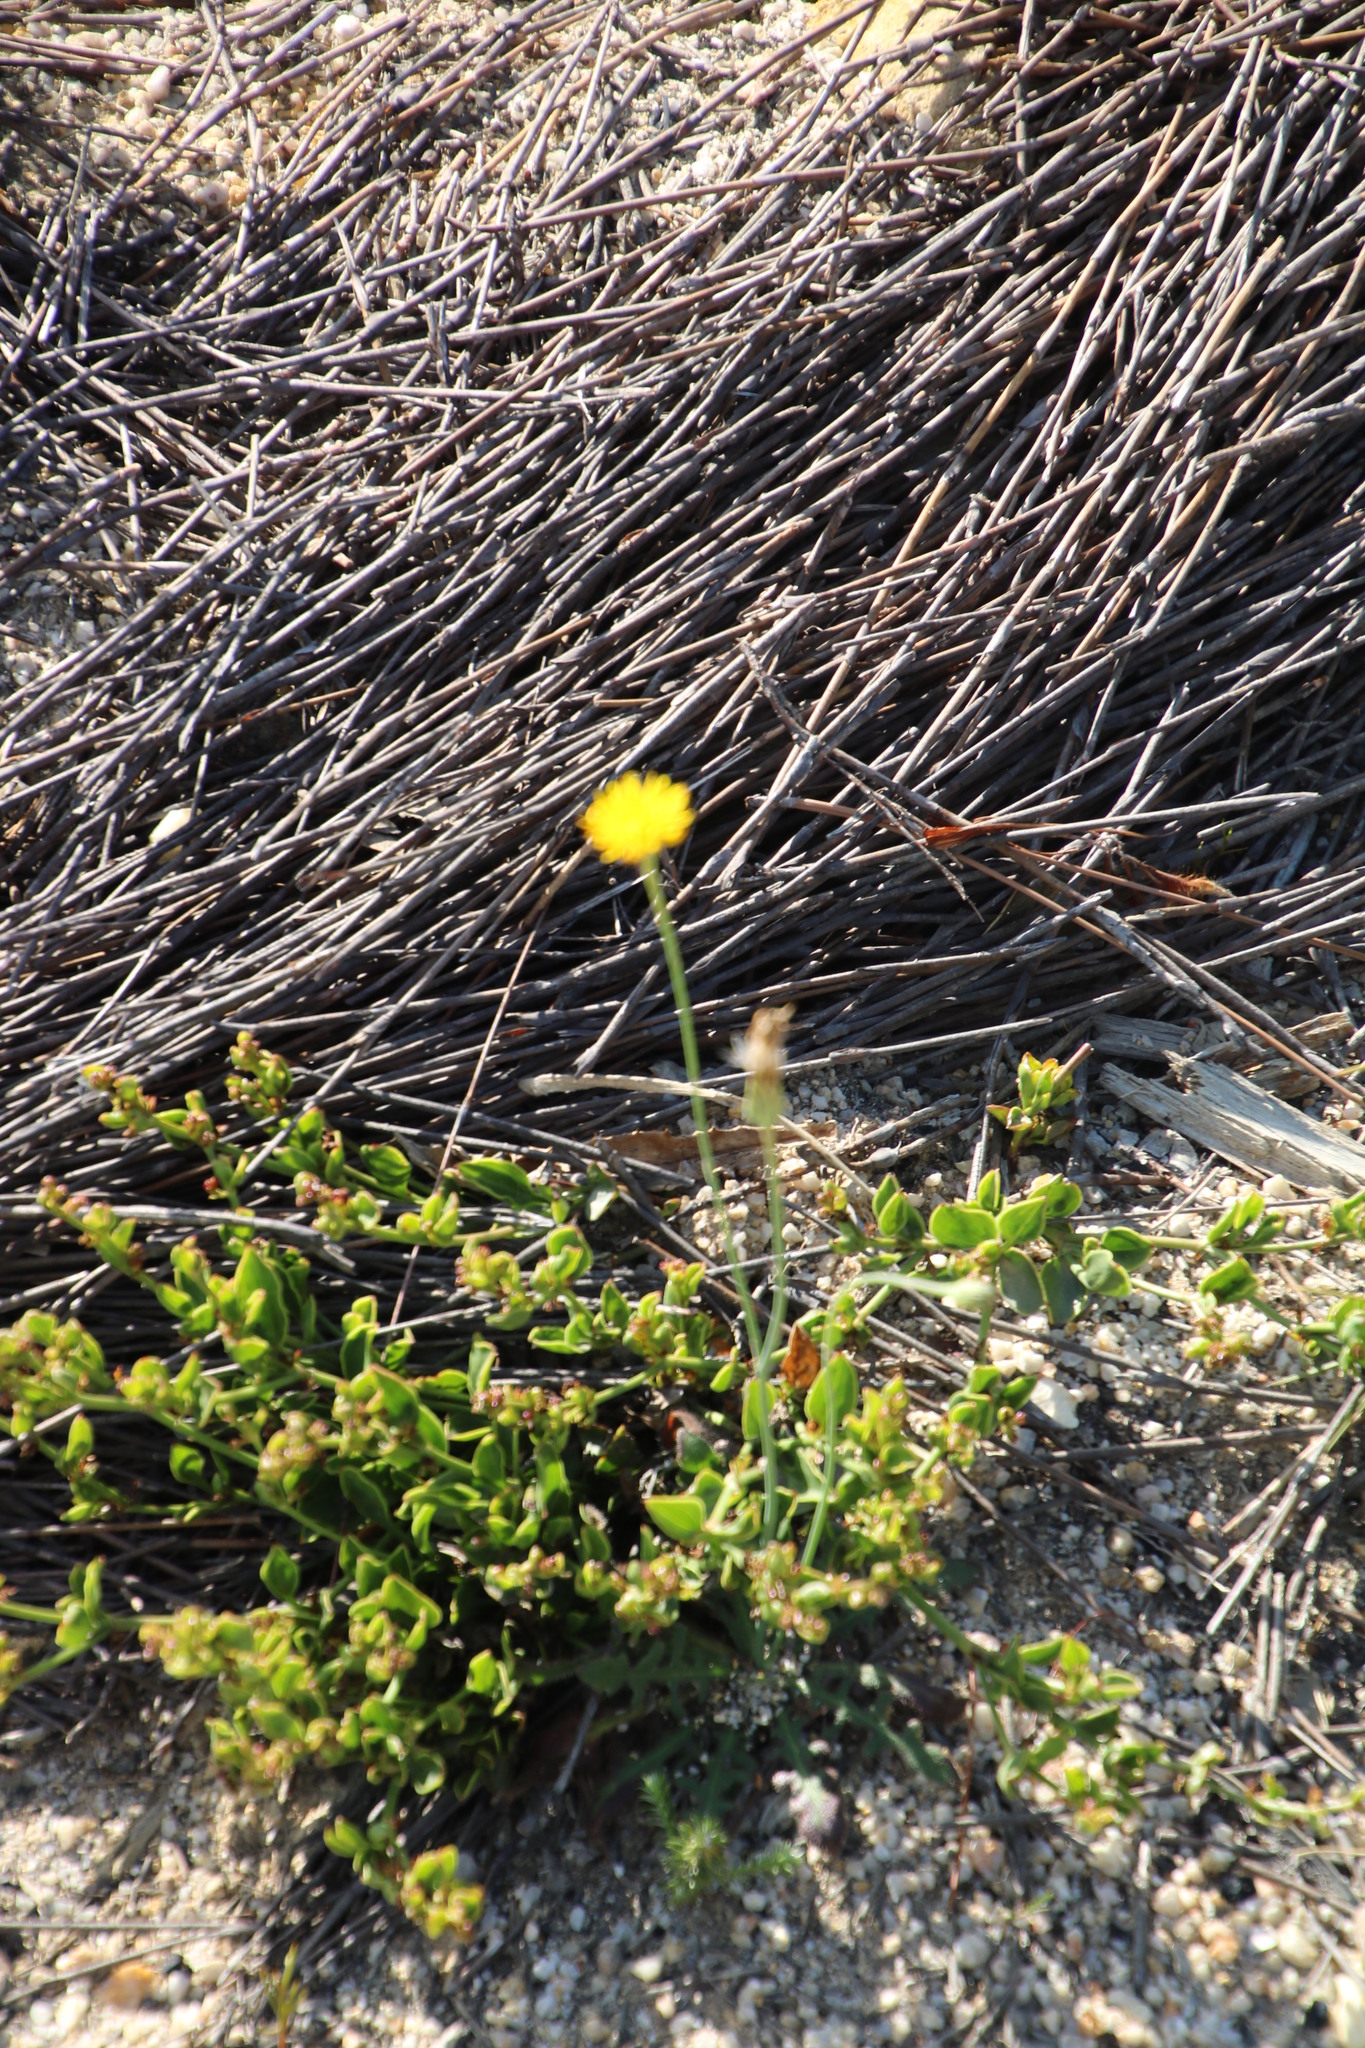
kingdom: Plantae
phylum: Tracheophyta
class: Magnoliopsida
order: Asterales
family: Asteraceae
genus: Hypochaeris
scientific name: Hypochaeris radicata
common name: Flatweed
